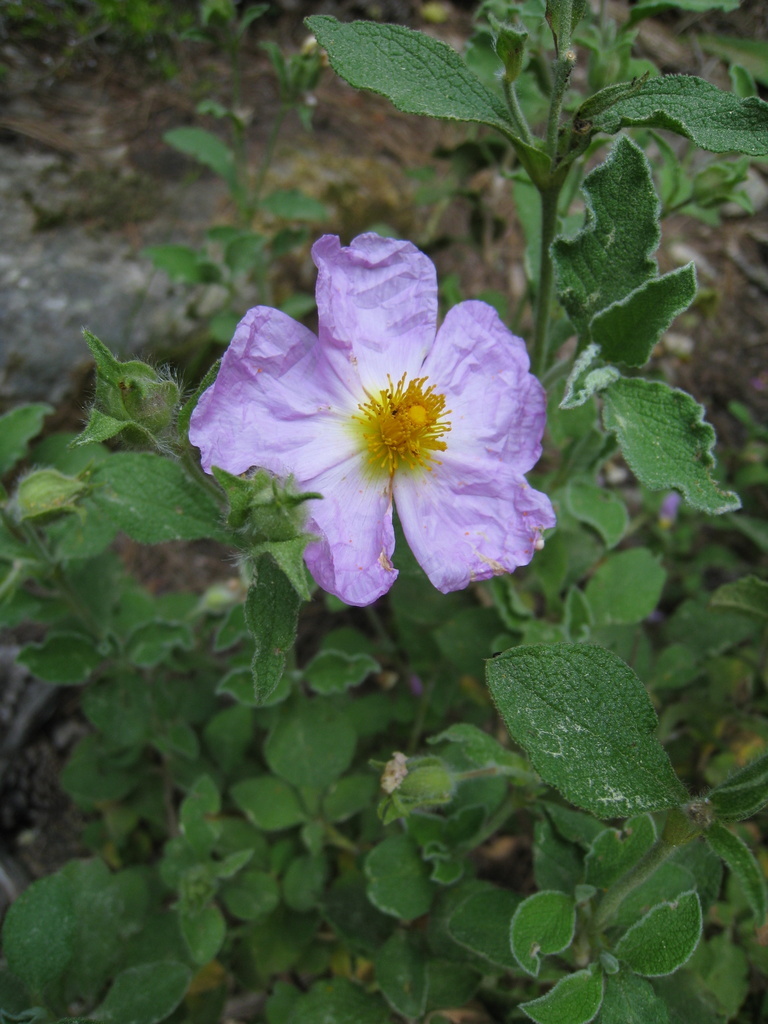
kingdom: Plantae
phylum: Tracheophyta
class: Magnoliopsida
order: Malvales
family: Cistaceae
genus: Cistus
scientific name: Cistus creticus
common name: Cretan rockrose
